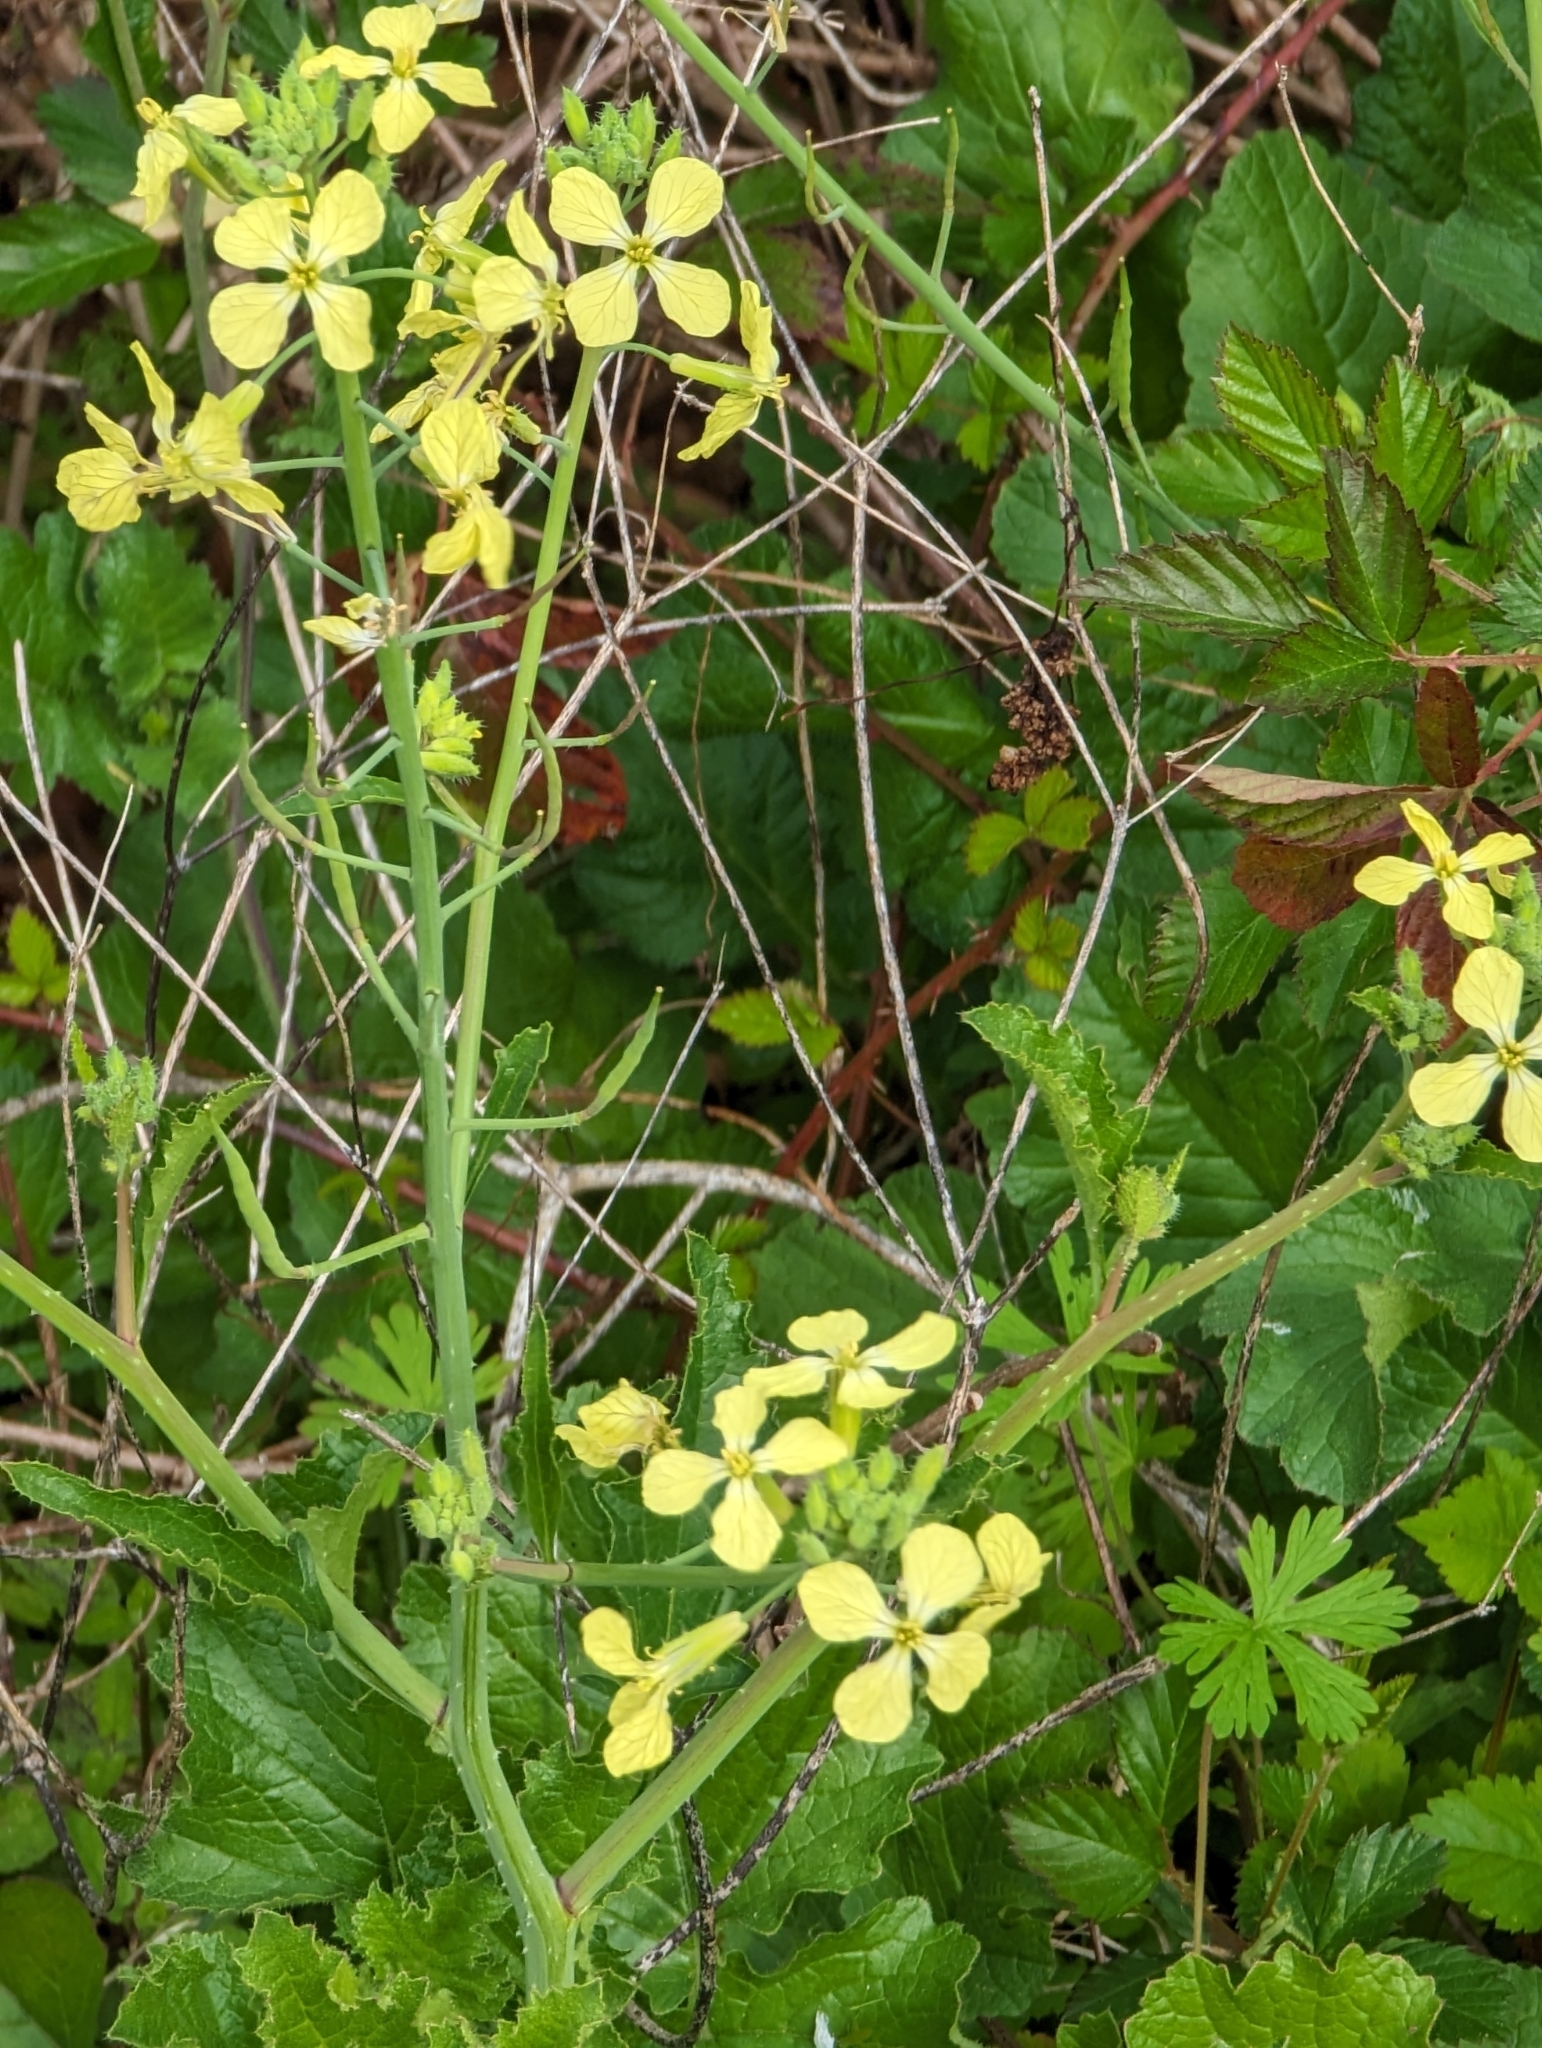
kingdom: Plantae
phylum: Tracheophyta
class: Magnoliopsida
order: Brassicales
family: Brassicaceae
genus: Raphanus
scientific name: Raphanus raphanistrum
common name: Wild radish
